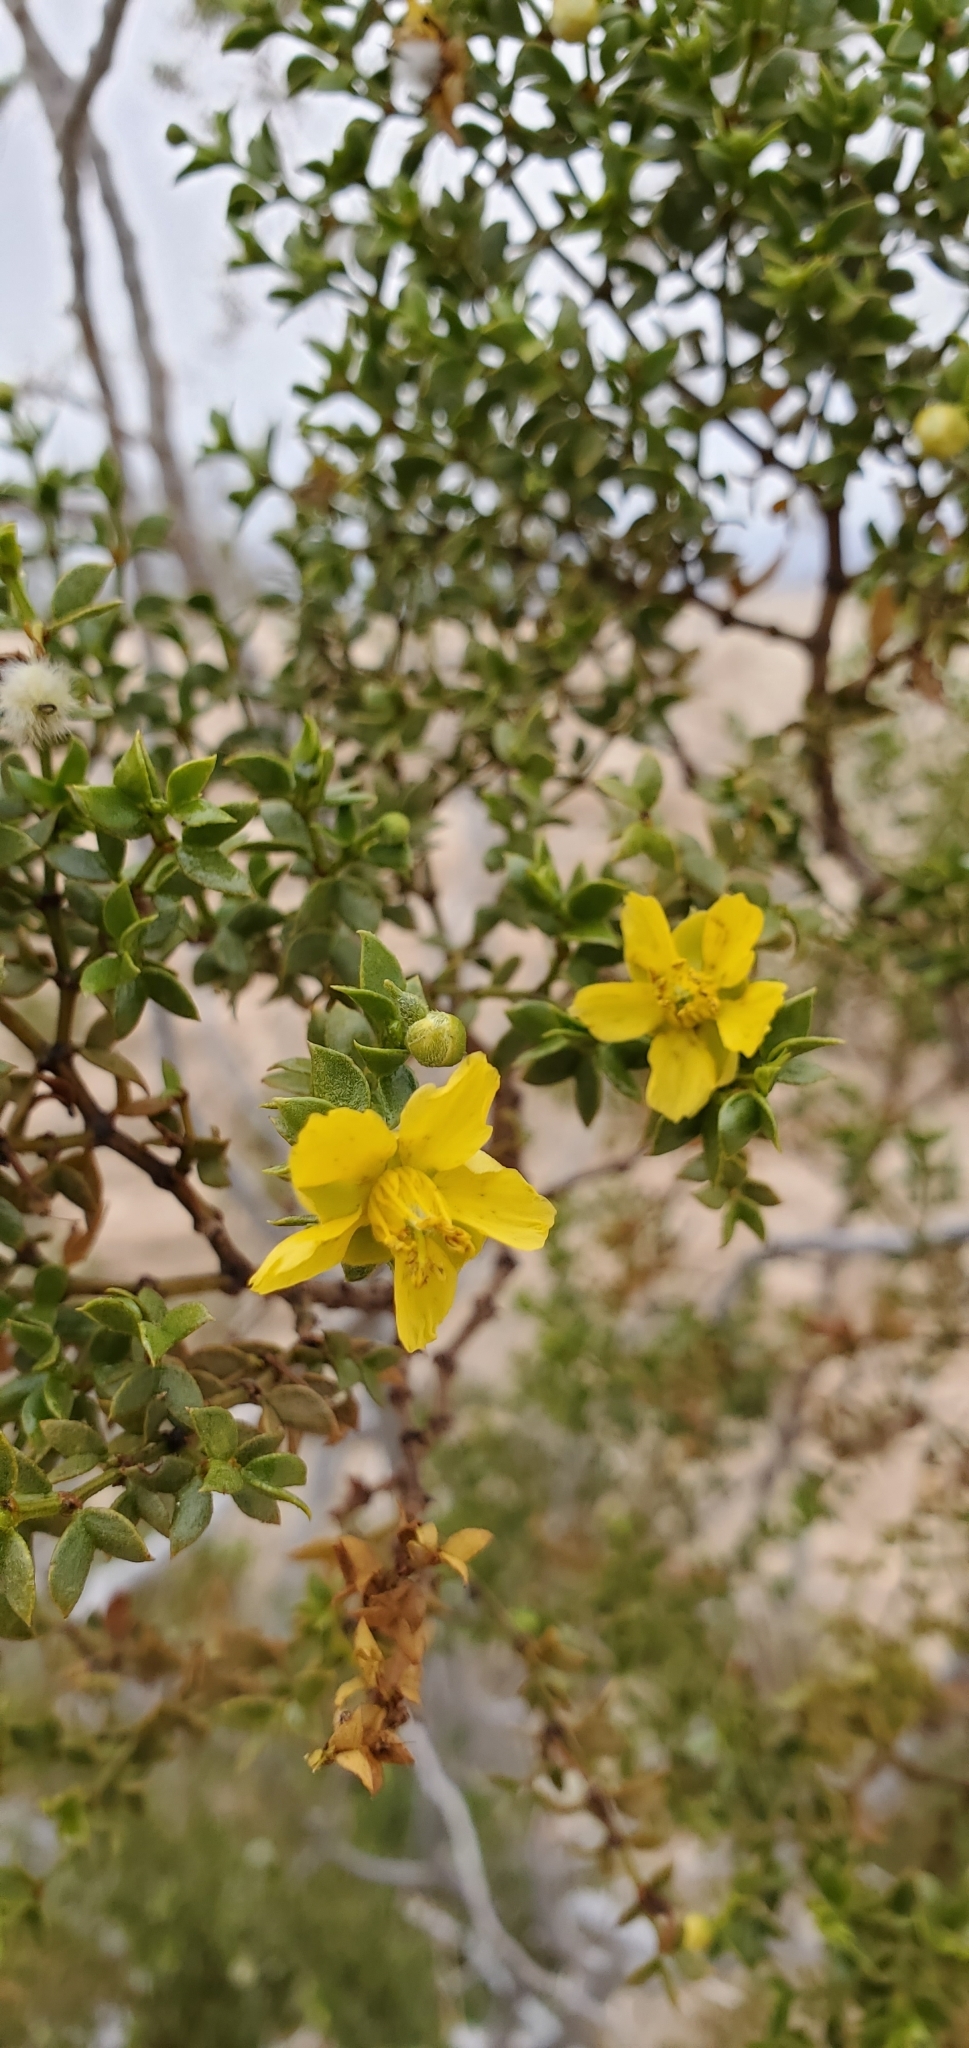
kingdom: Plantae
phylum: Tracheophyta
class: Magnoliopsida
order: Zygophyllales
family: Zygophyllaceae
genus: Larrea
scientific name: Larrea tridentata
